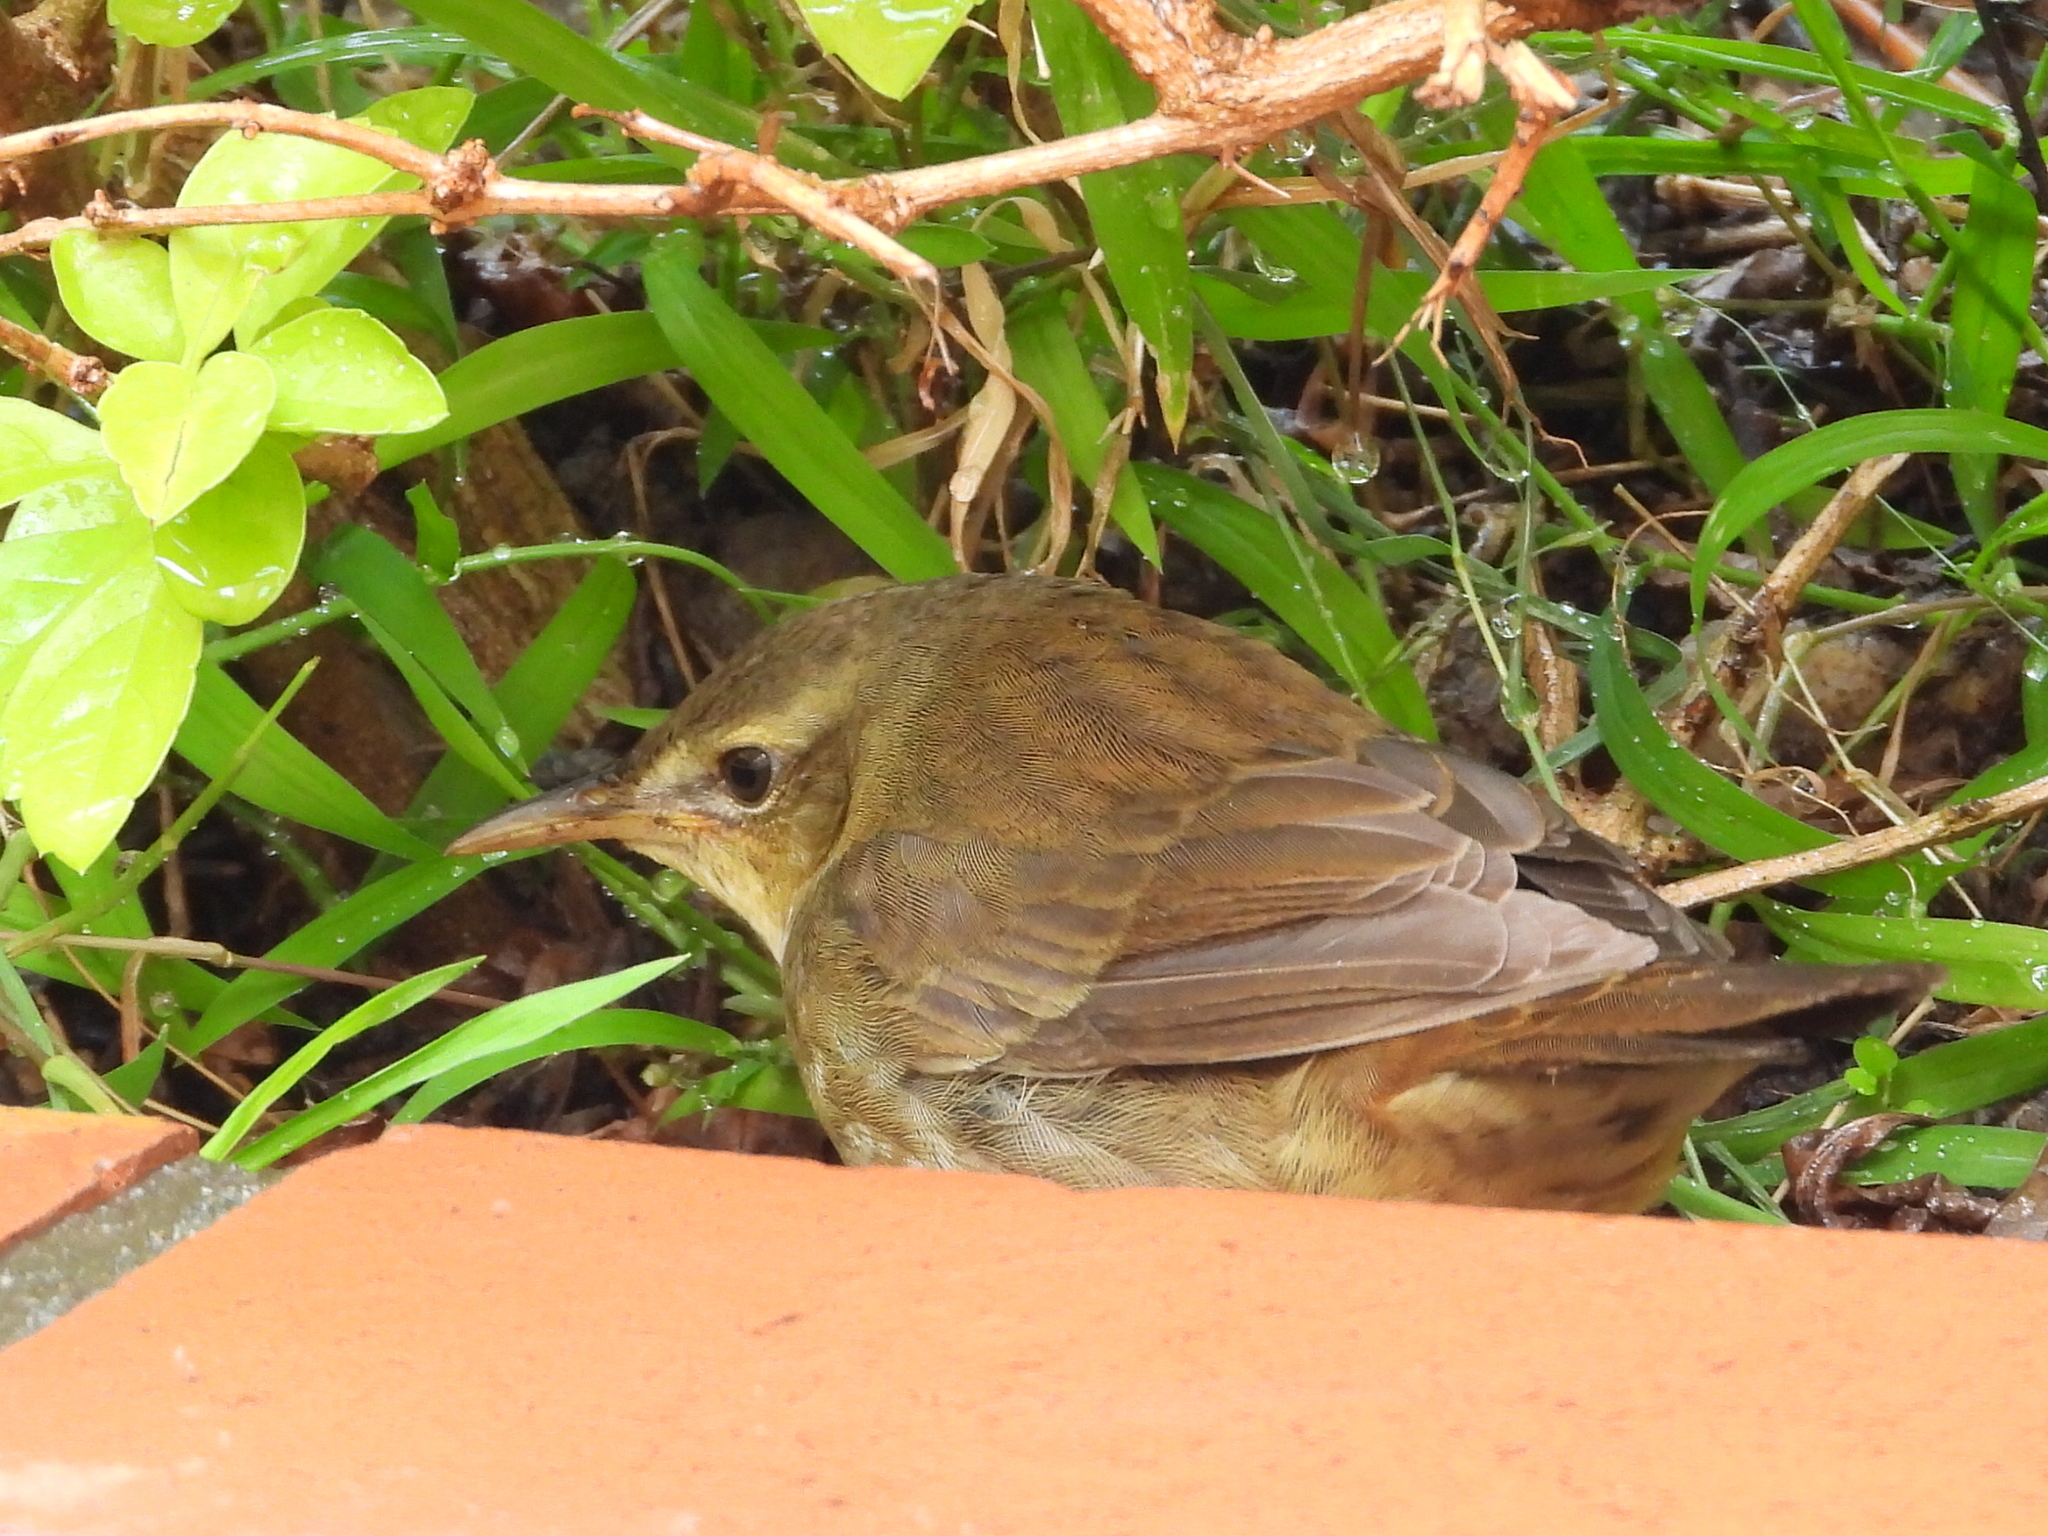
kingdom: Animalia
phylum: Chordata
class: Aves
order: Passeriformes
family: Locustellidae
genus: Locustella
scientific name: Locustella ochotensis
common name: Middendorff's grasshopper-warbler
